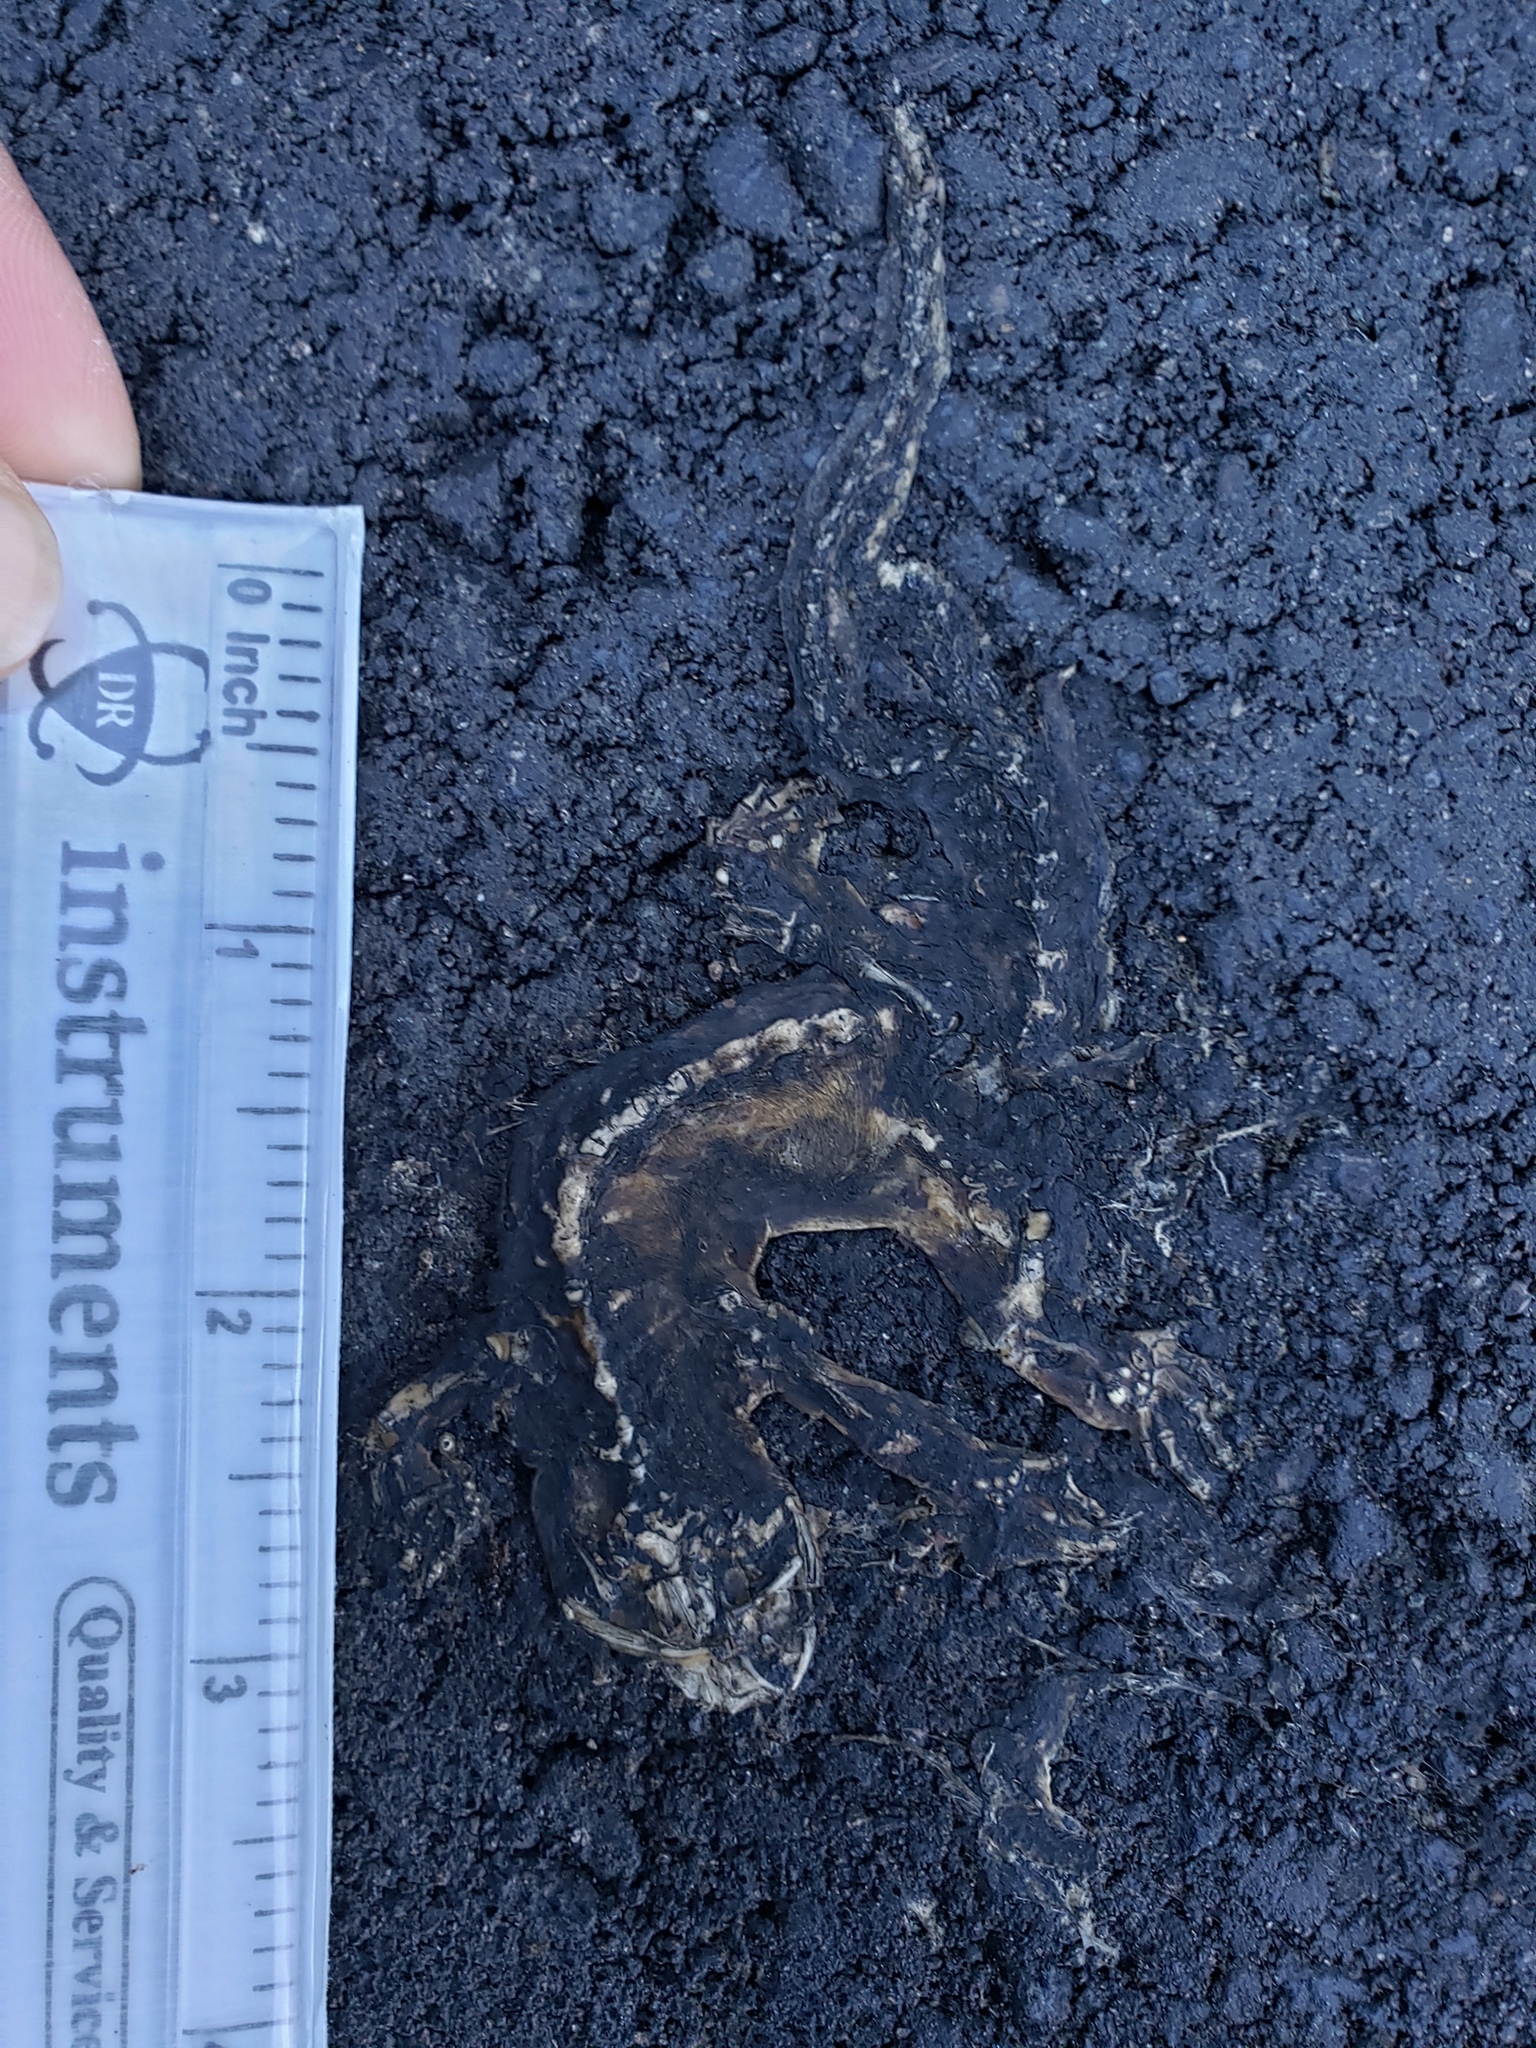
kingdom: Animalia
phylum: Chordata
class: Amphibia
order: Caudata
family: Salamandridae
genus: Taricha
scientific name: Taricha
